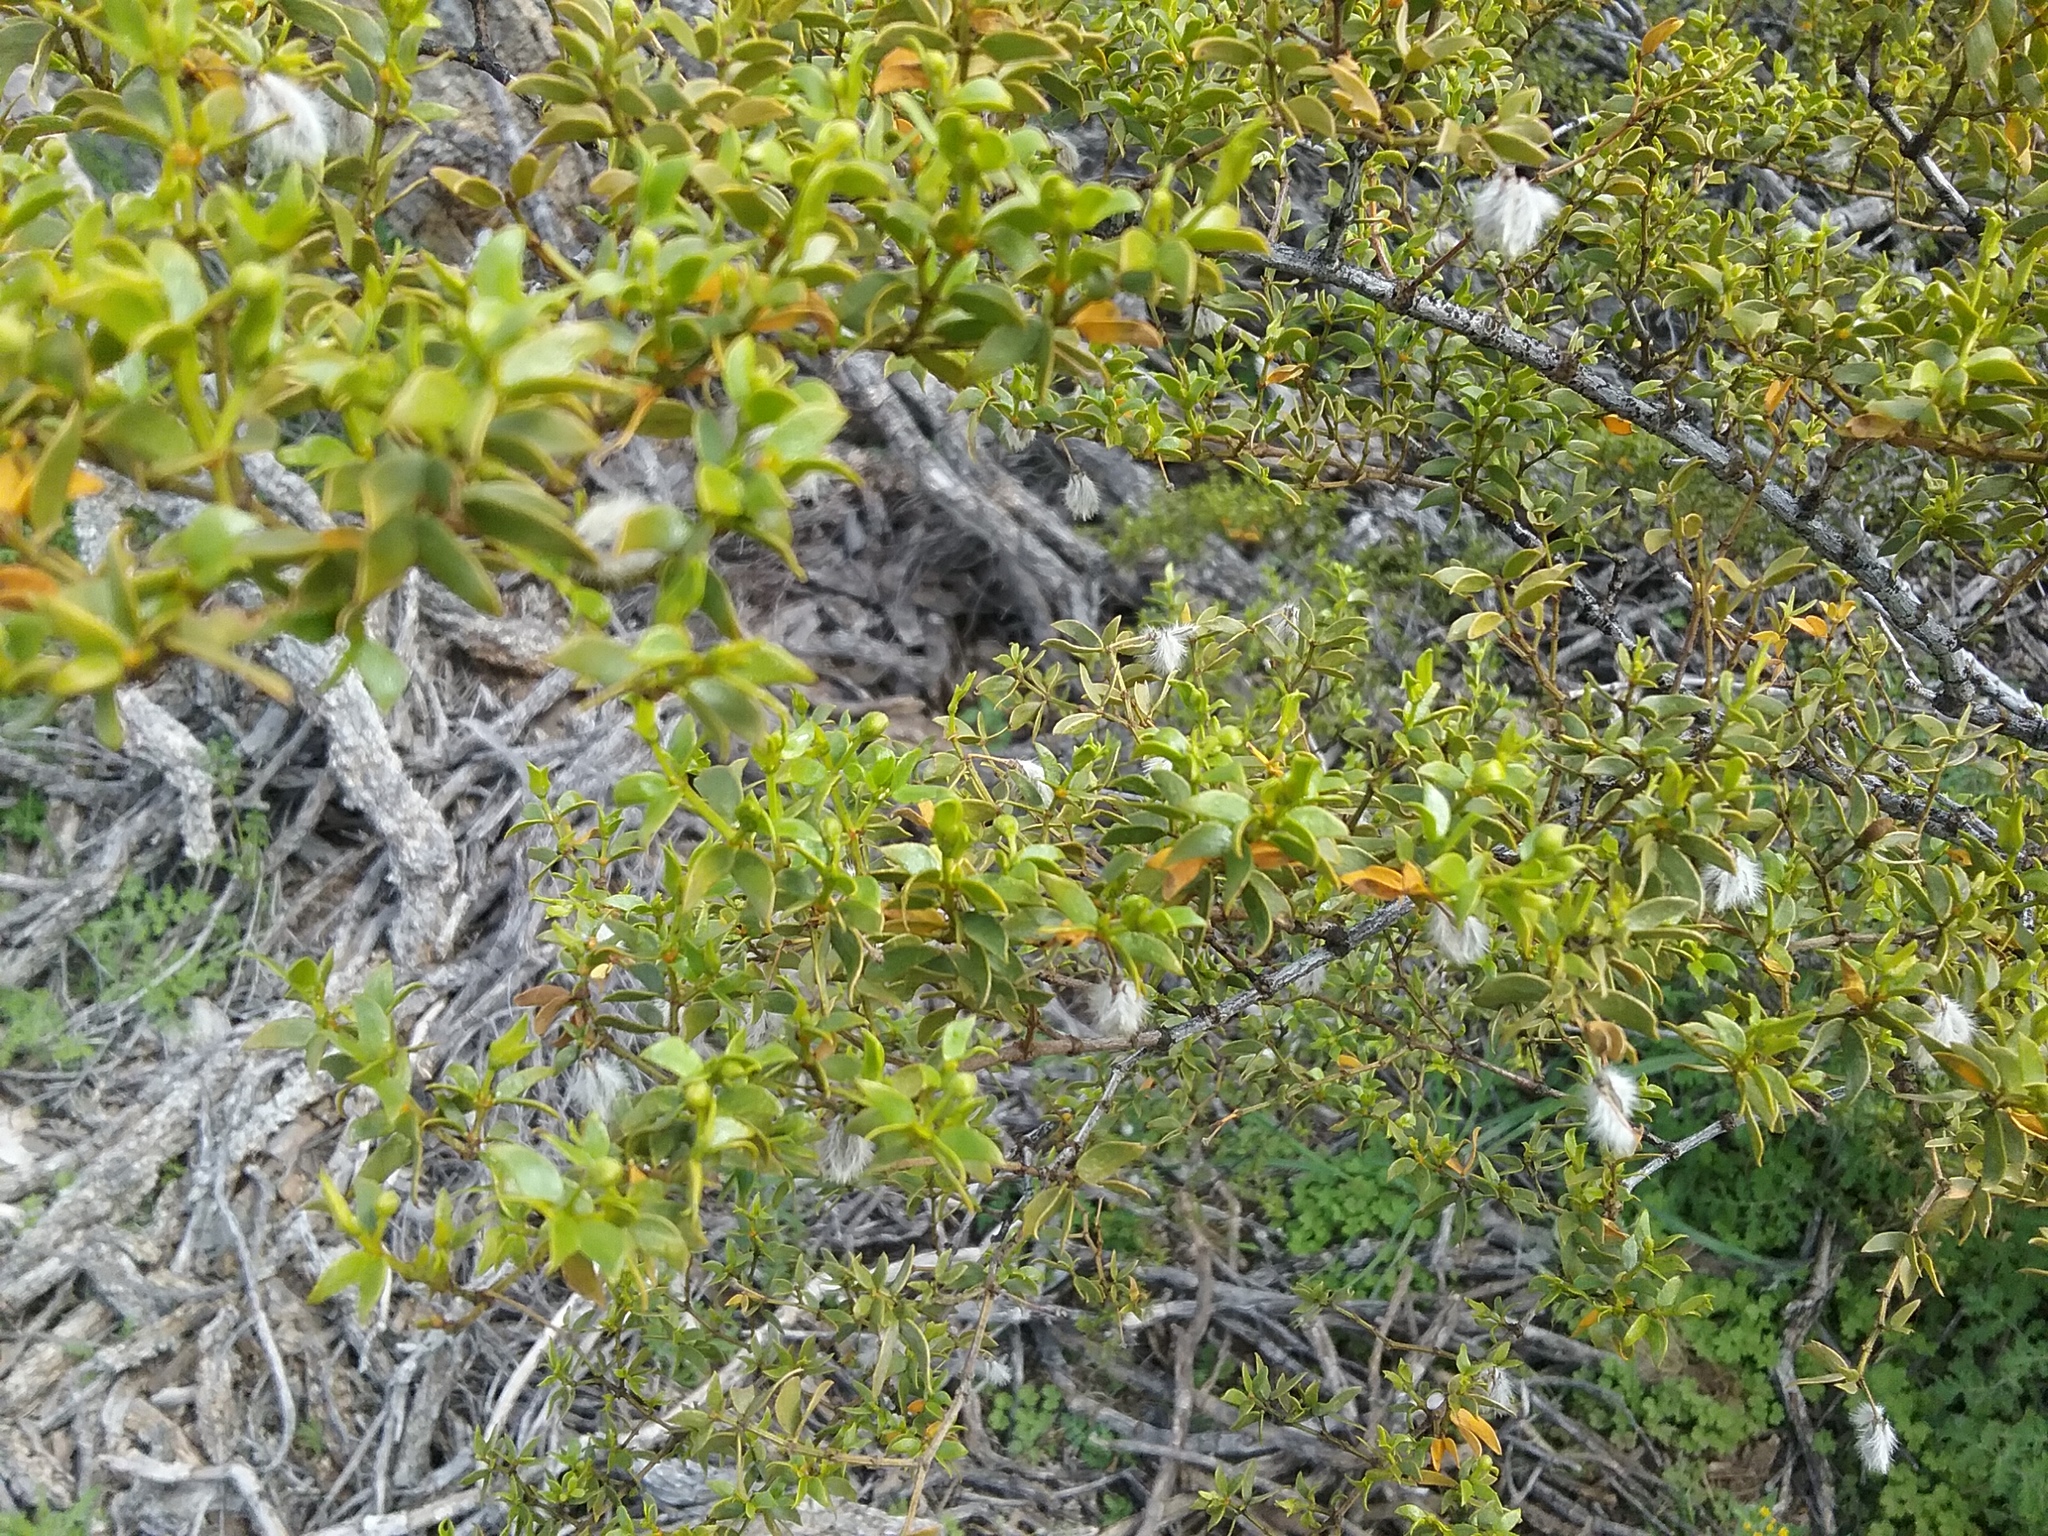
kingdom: Plantae
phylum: Tracheophyta
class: Magnoliopsida
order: Zygophyllales
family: Zygophyllaceae
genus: Larrea
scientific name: Larrea tridentata
